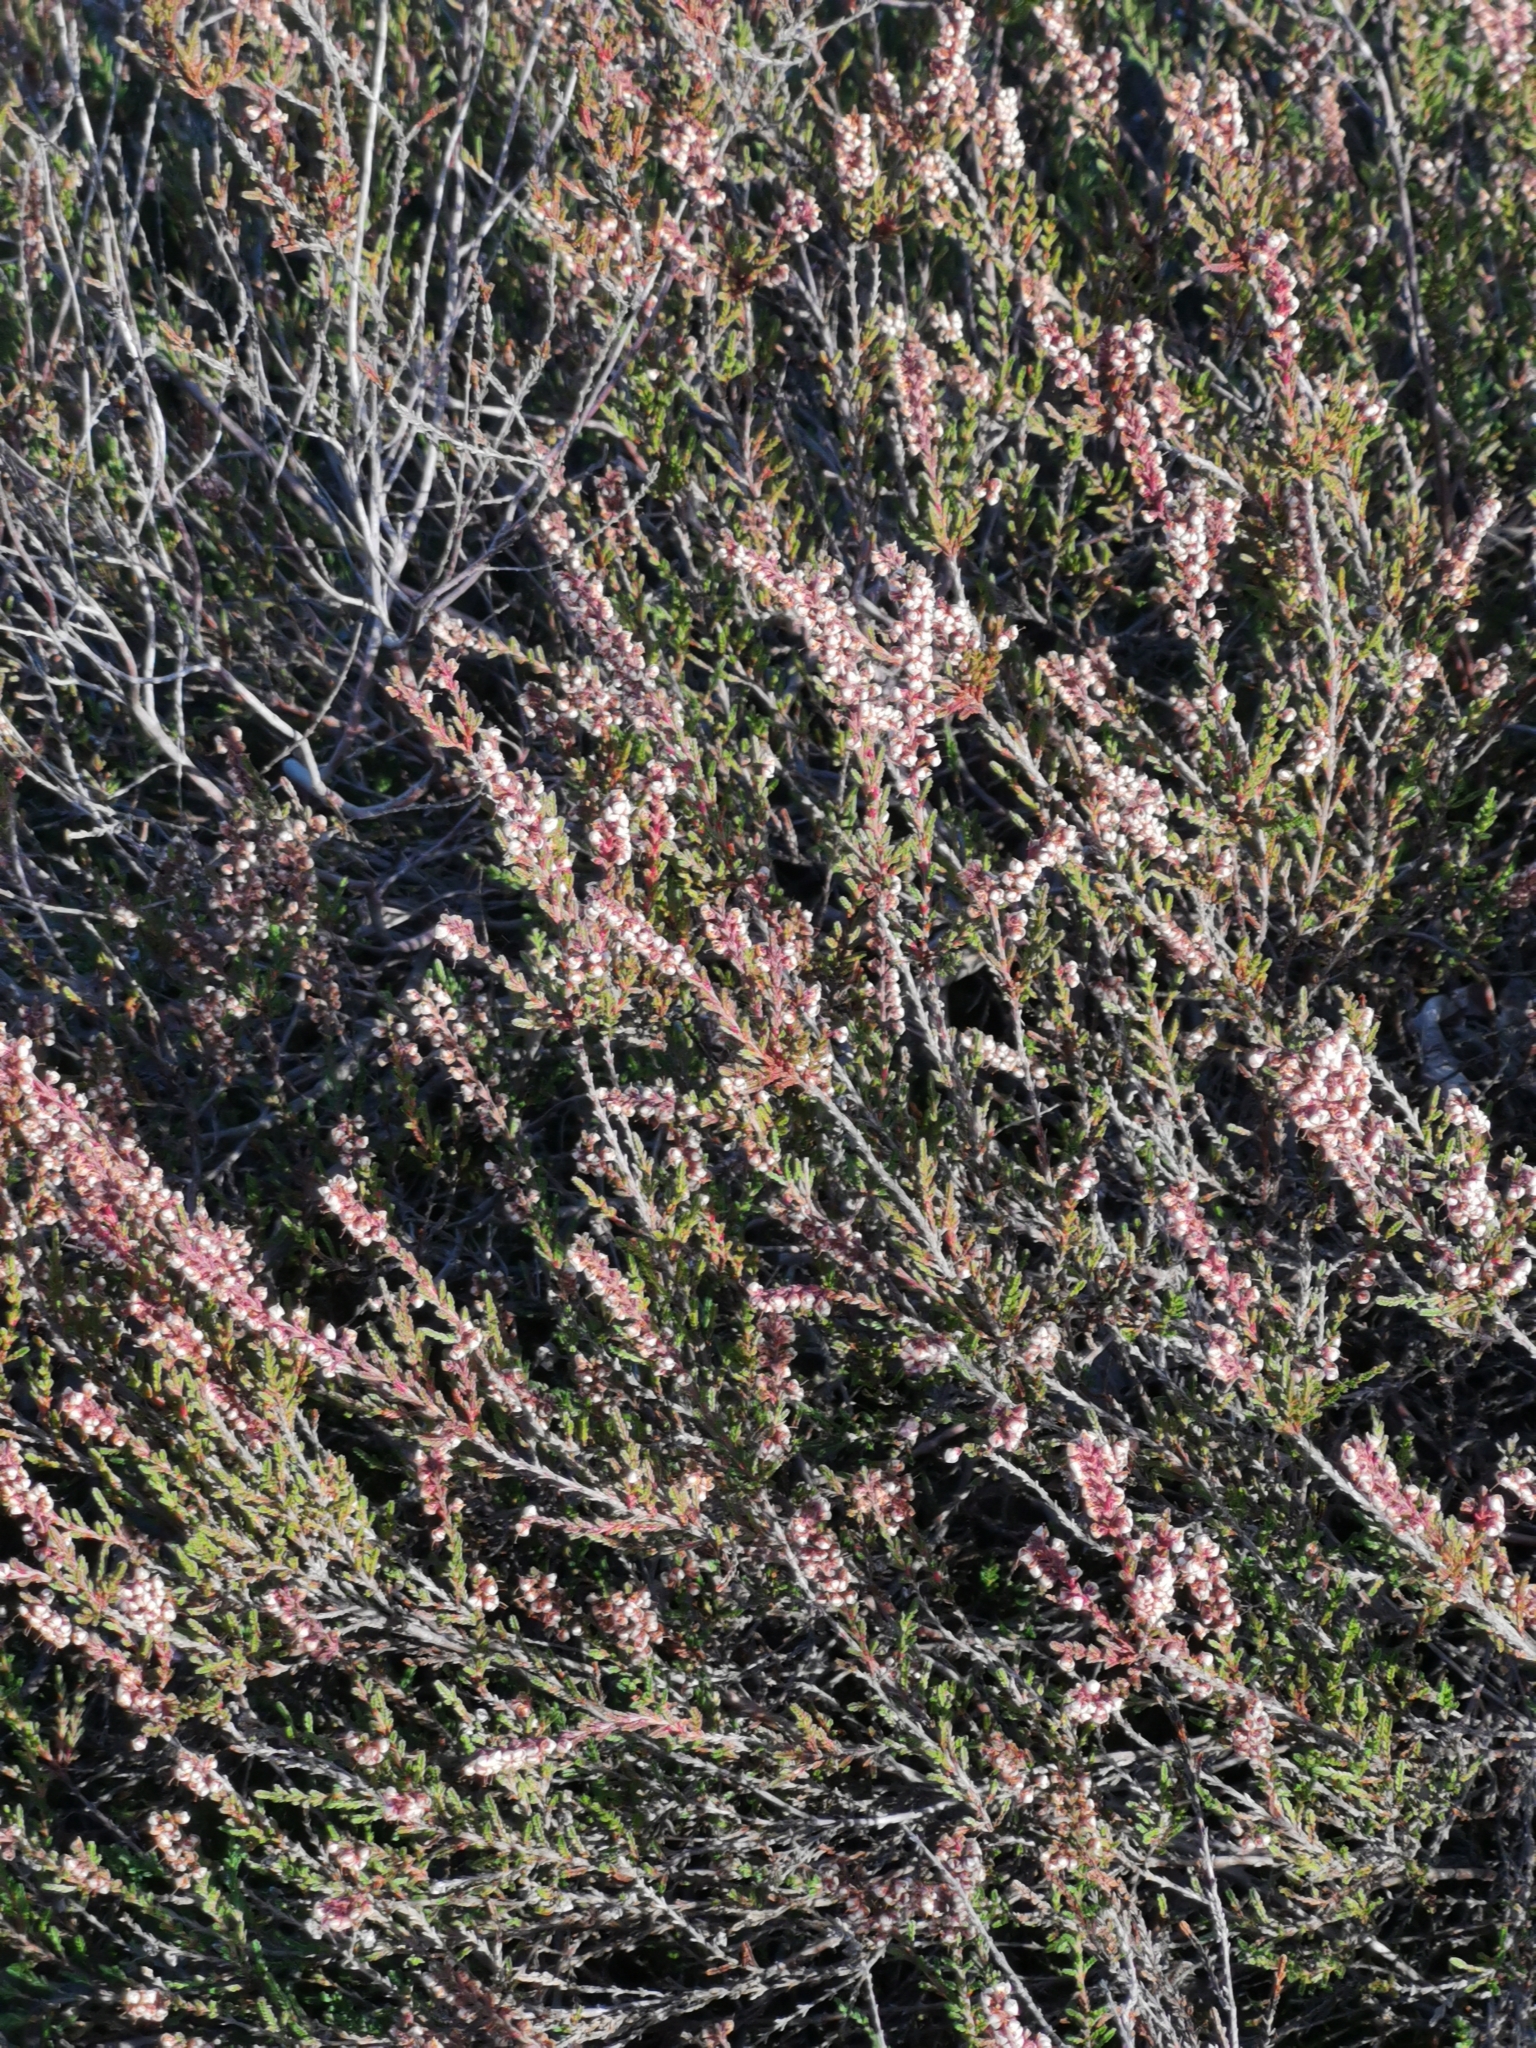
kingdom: Plantae
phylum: Tracheophyta
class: Magnoliopsida
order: Ericales
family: Ericaceae
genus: Calluna
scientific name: Calluna vulgaris
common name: Heather
